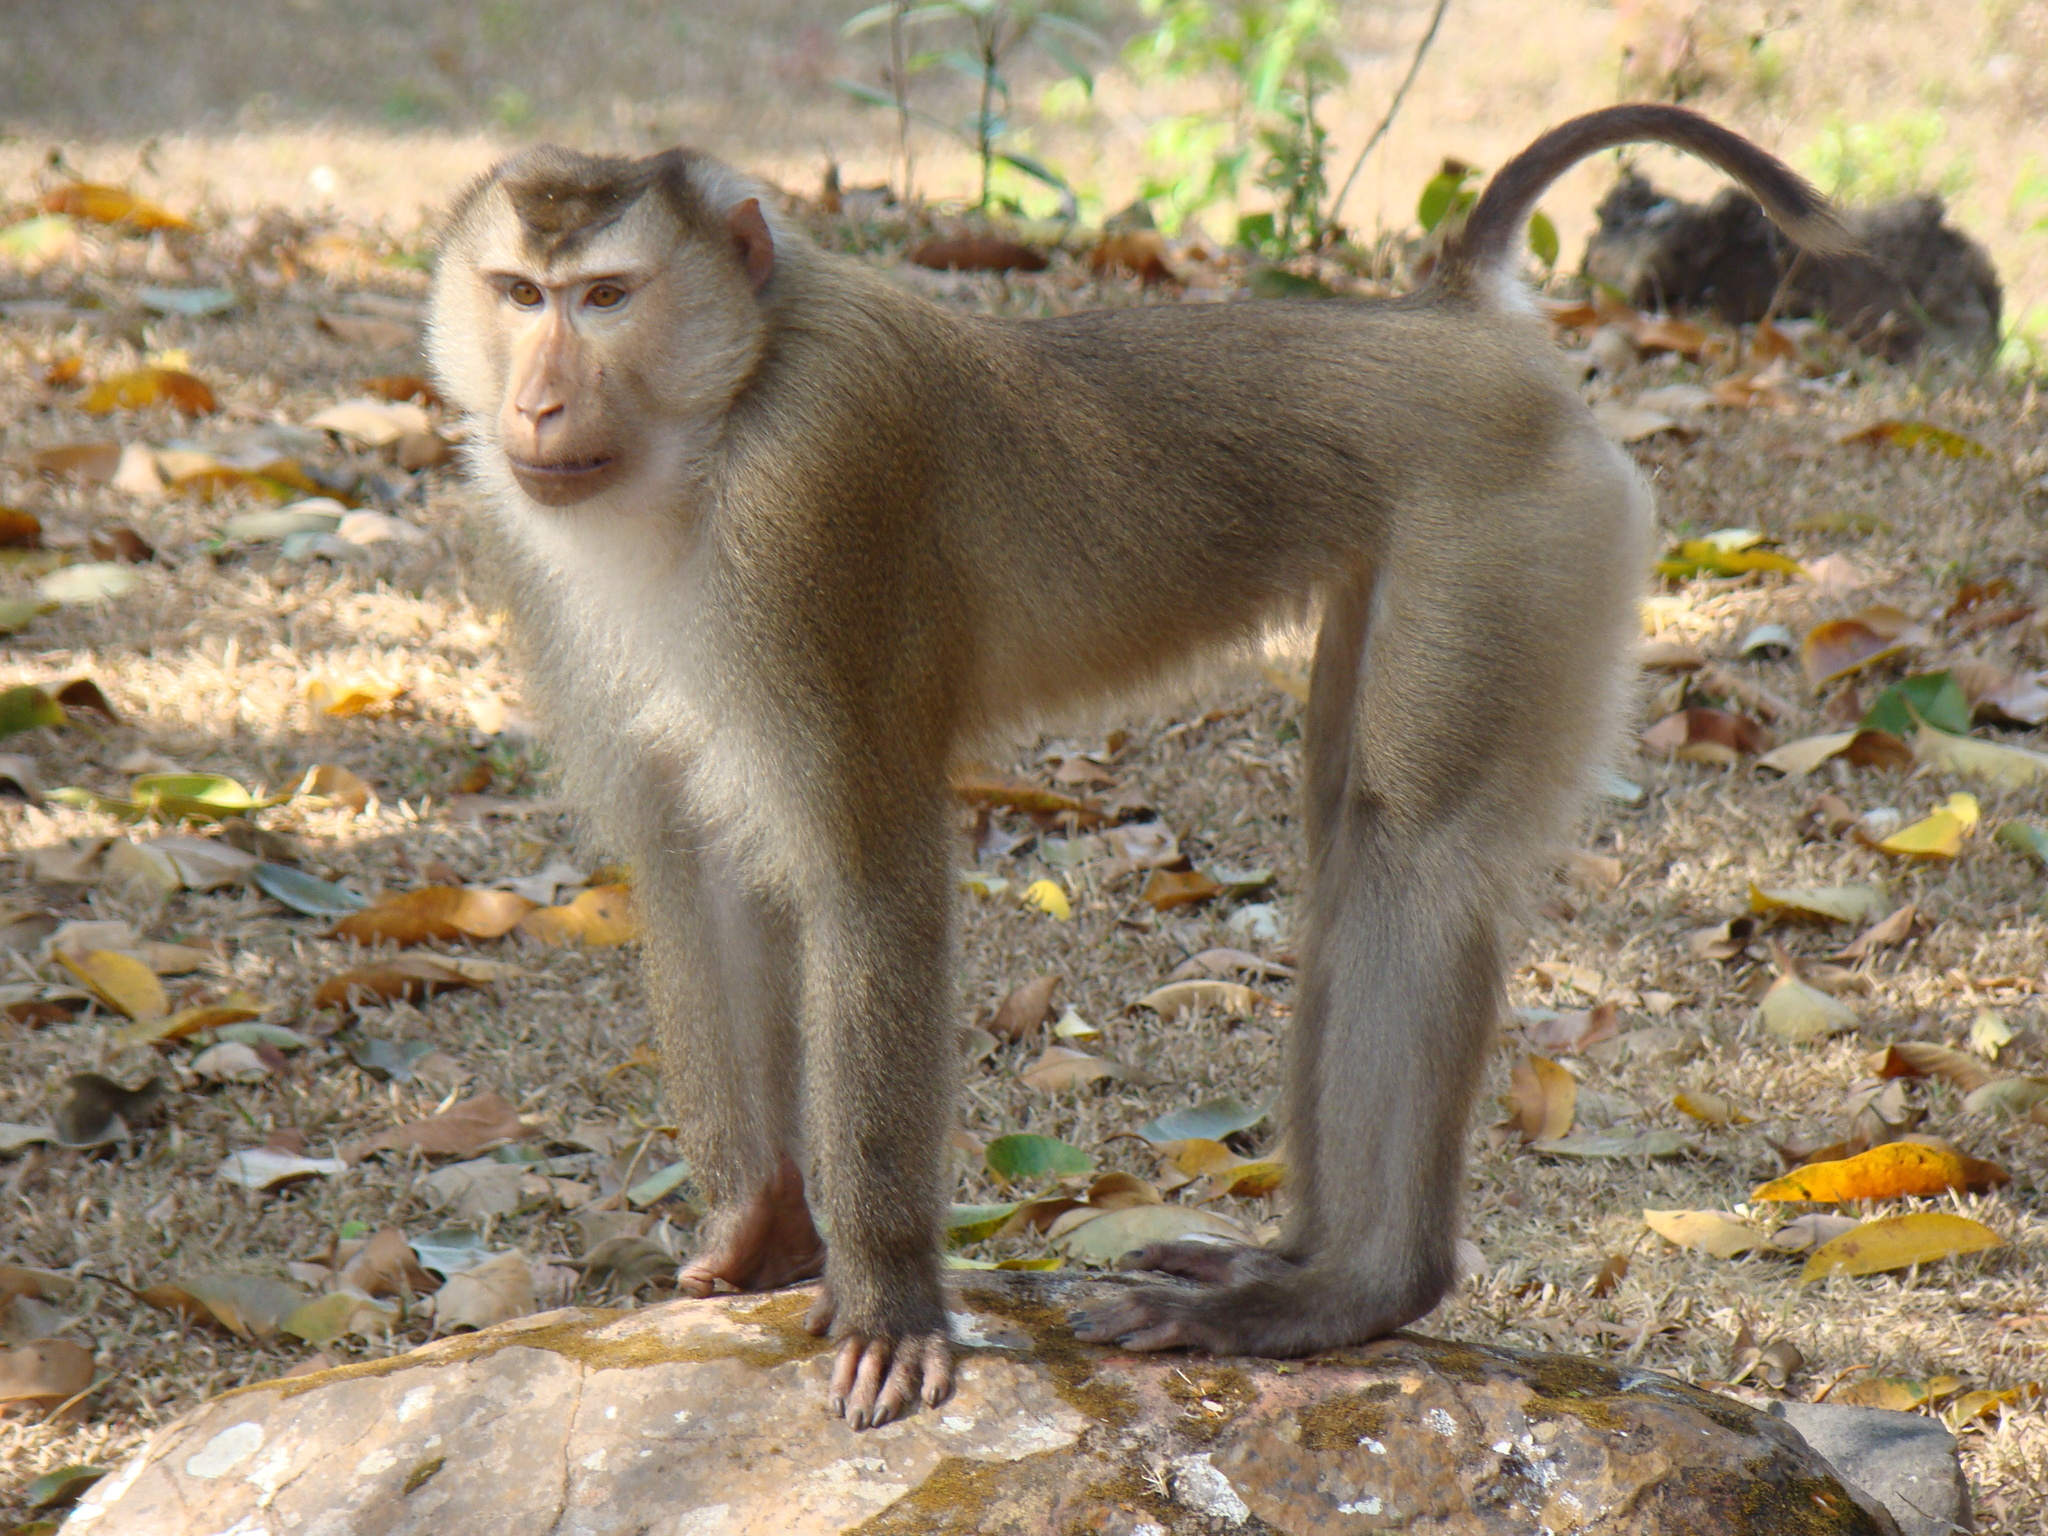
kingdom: Animalia
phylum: Chordata
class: Mammalia
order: Primates
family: Cercopithecidae
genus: Macaca
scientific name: Macaca leonina
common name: Northern pig-tailed macaque
